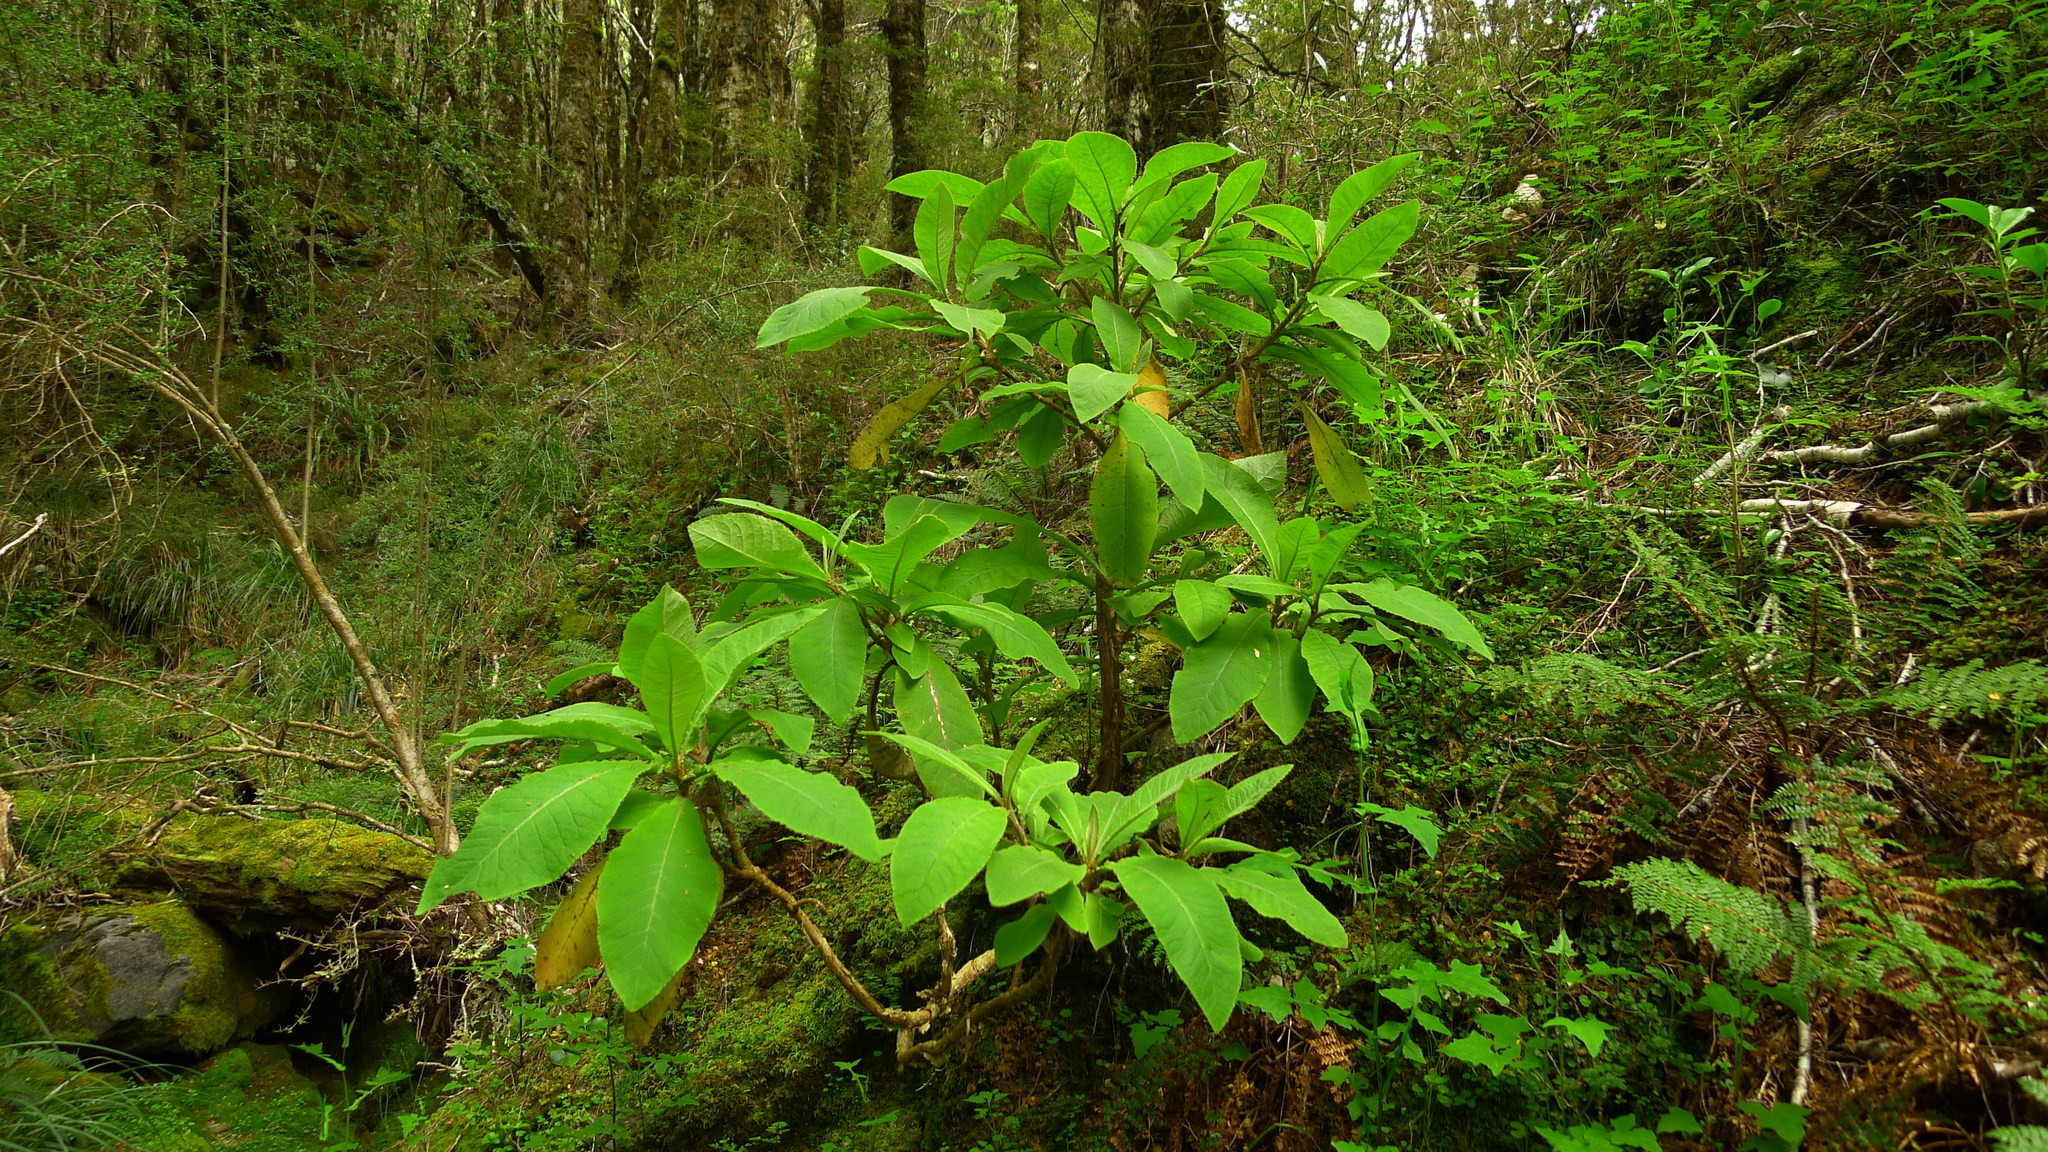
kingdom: Plantae
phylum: Tracheophyta
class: Magnoliopsida
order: Asterales
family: Asteraceae
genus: Brachyglottis
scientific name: Brachyglottis hectorii
